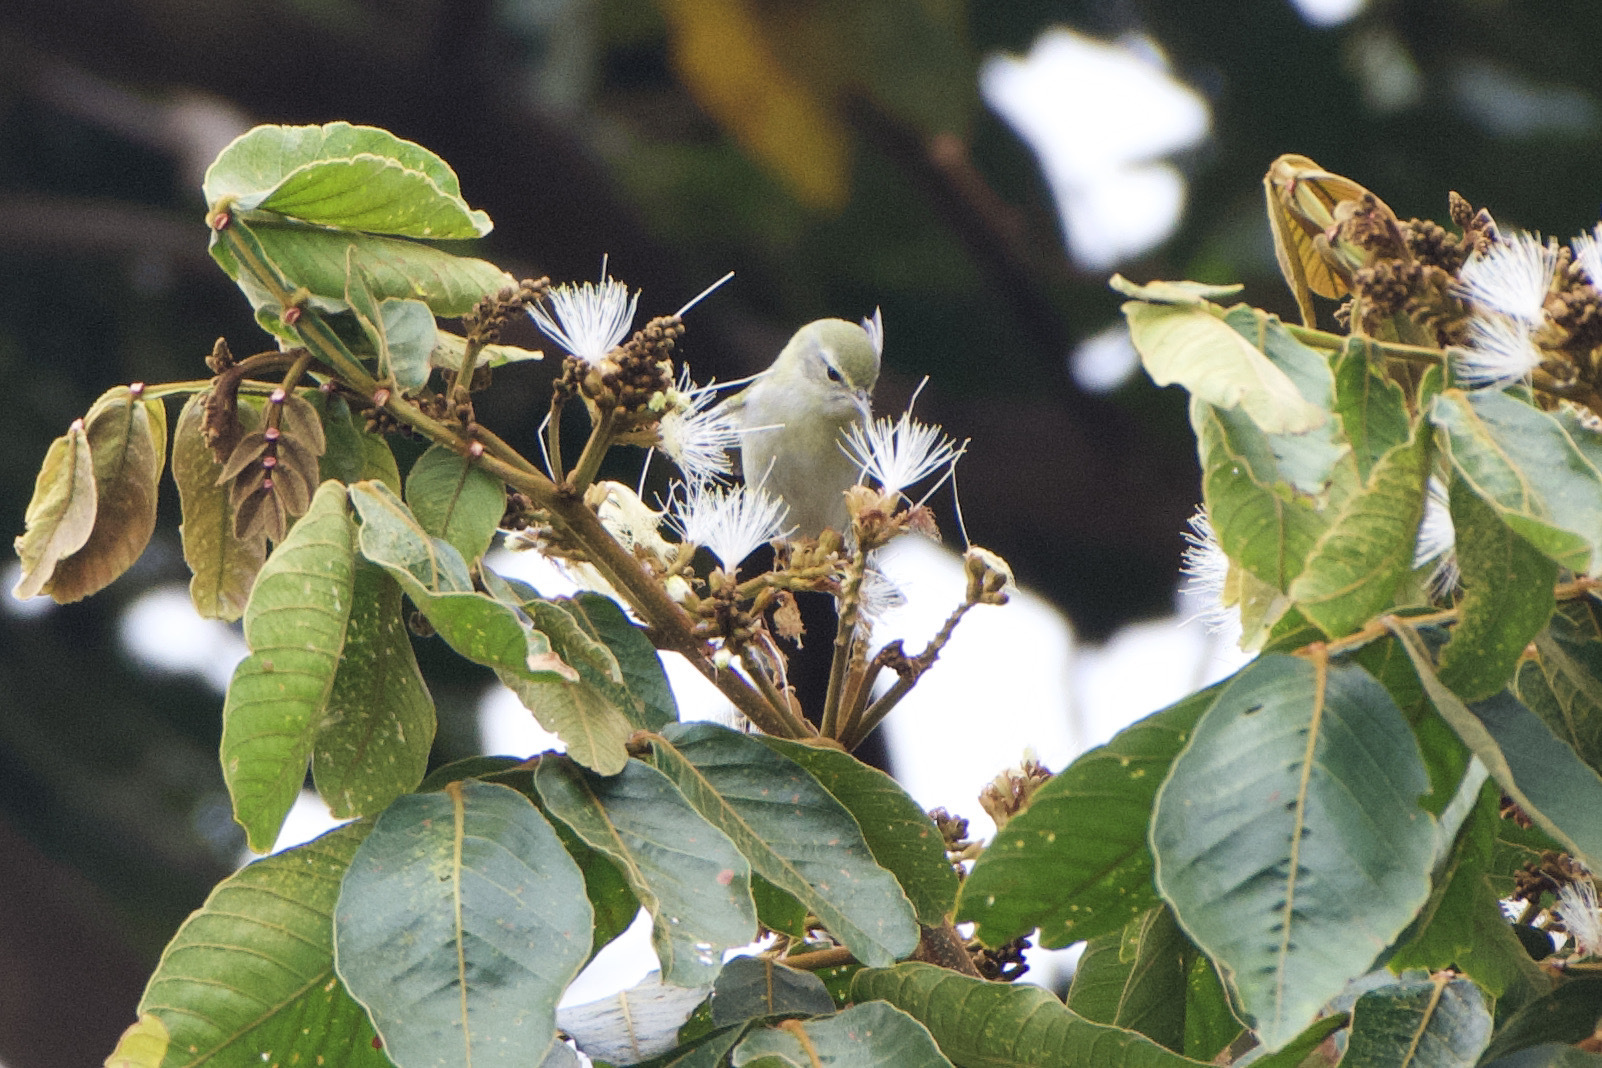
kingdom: Animalia
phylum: Chordata
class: Aves
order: Passeriformes
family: Parulidae
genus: Leiothlypis
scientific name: Leiothlypis peregrina
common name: Tennessee warbler
